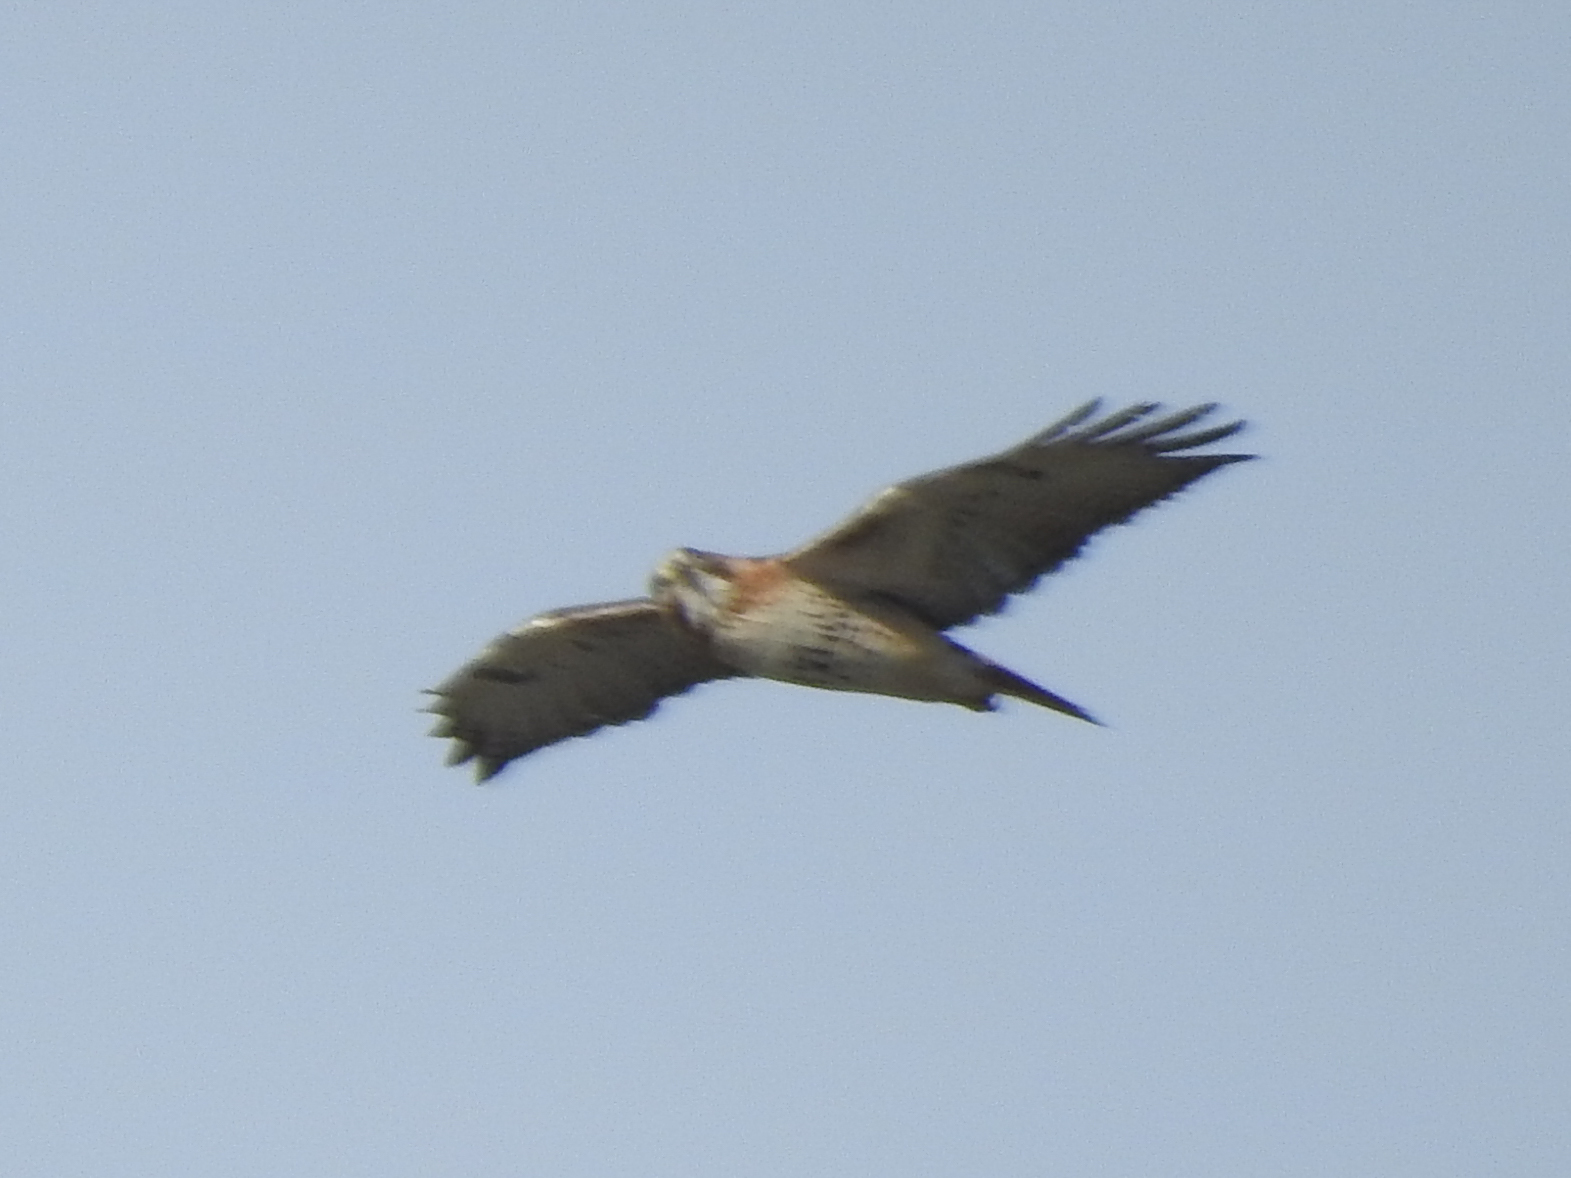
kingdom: Animalia
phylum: Chordata
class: Aves
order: Accipitriformes
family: Accipitridae
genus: Buteo
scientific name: Buteo jamaicensis
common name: Red-tailed hawk
